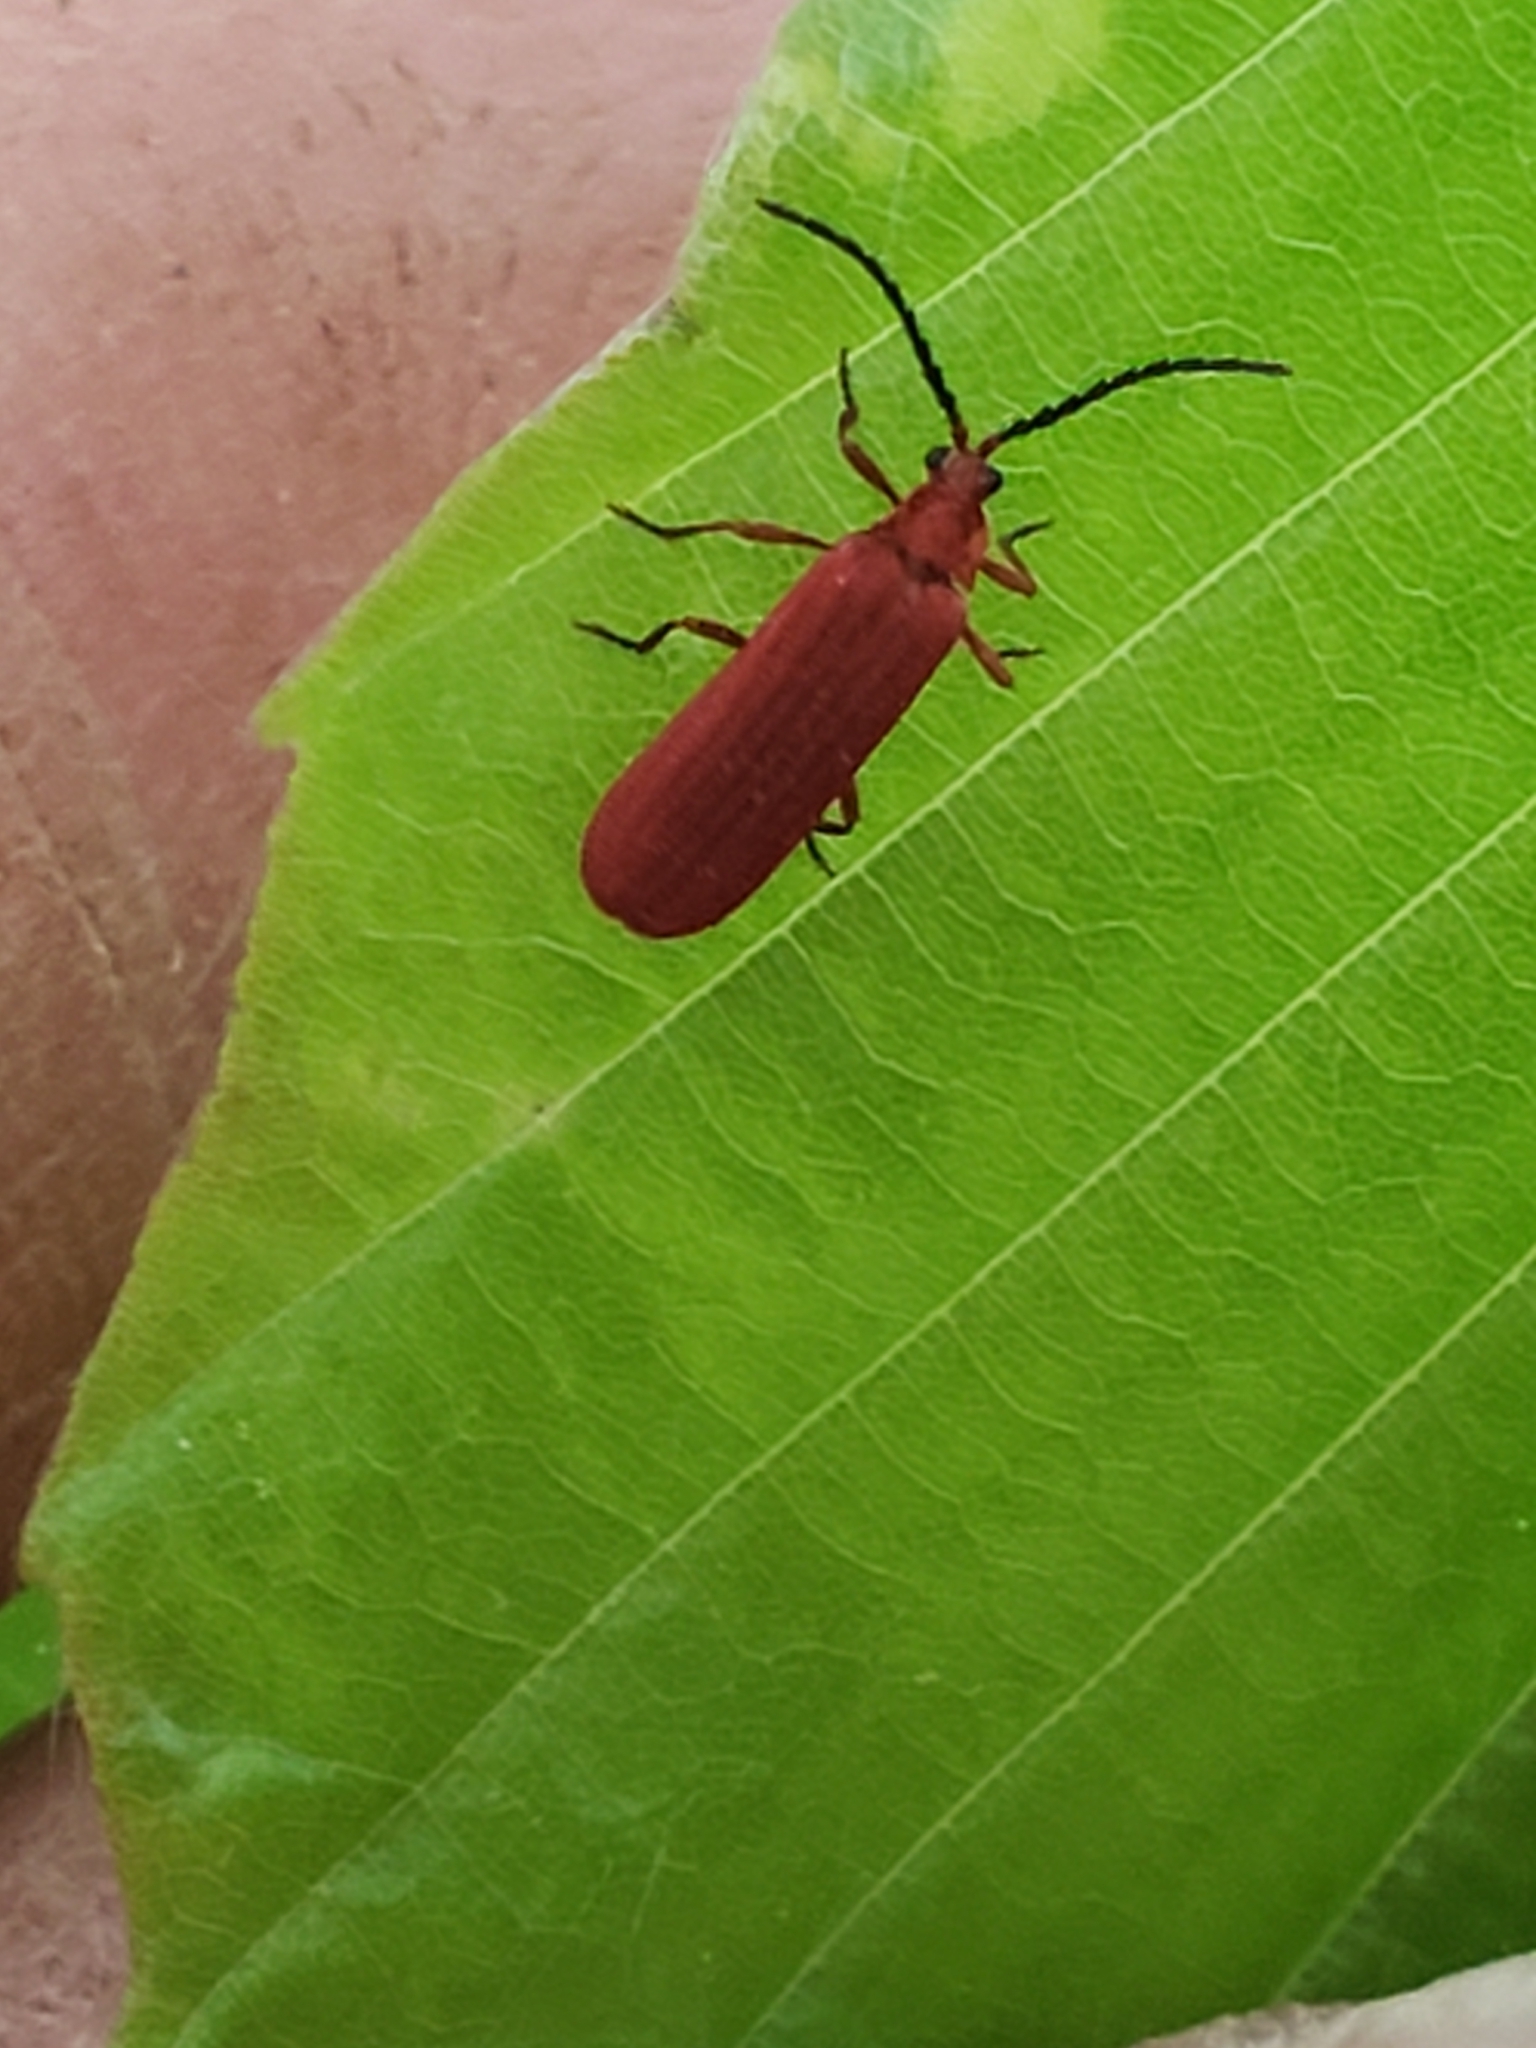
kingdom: Animalia
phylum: Arthropoda
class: Insecta
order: Coleoptera
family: Lycidae
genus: Punicealis
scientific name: Punicealis
